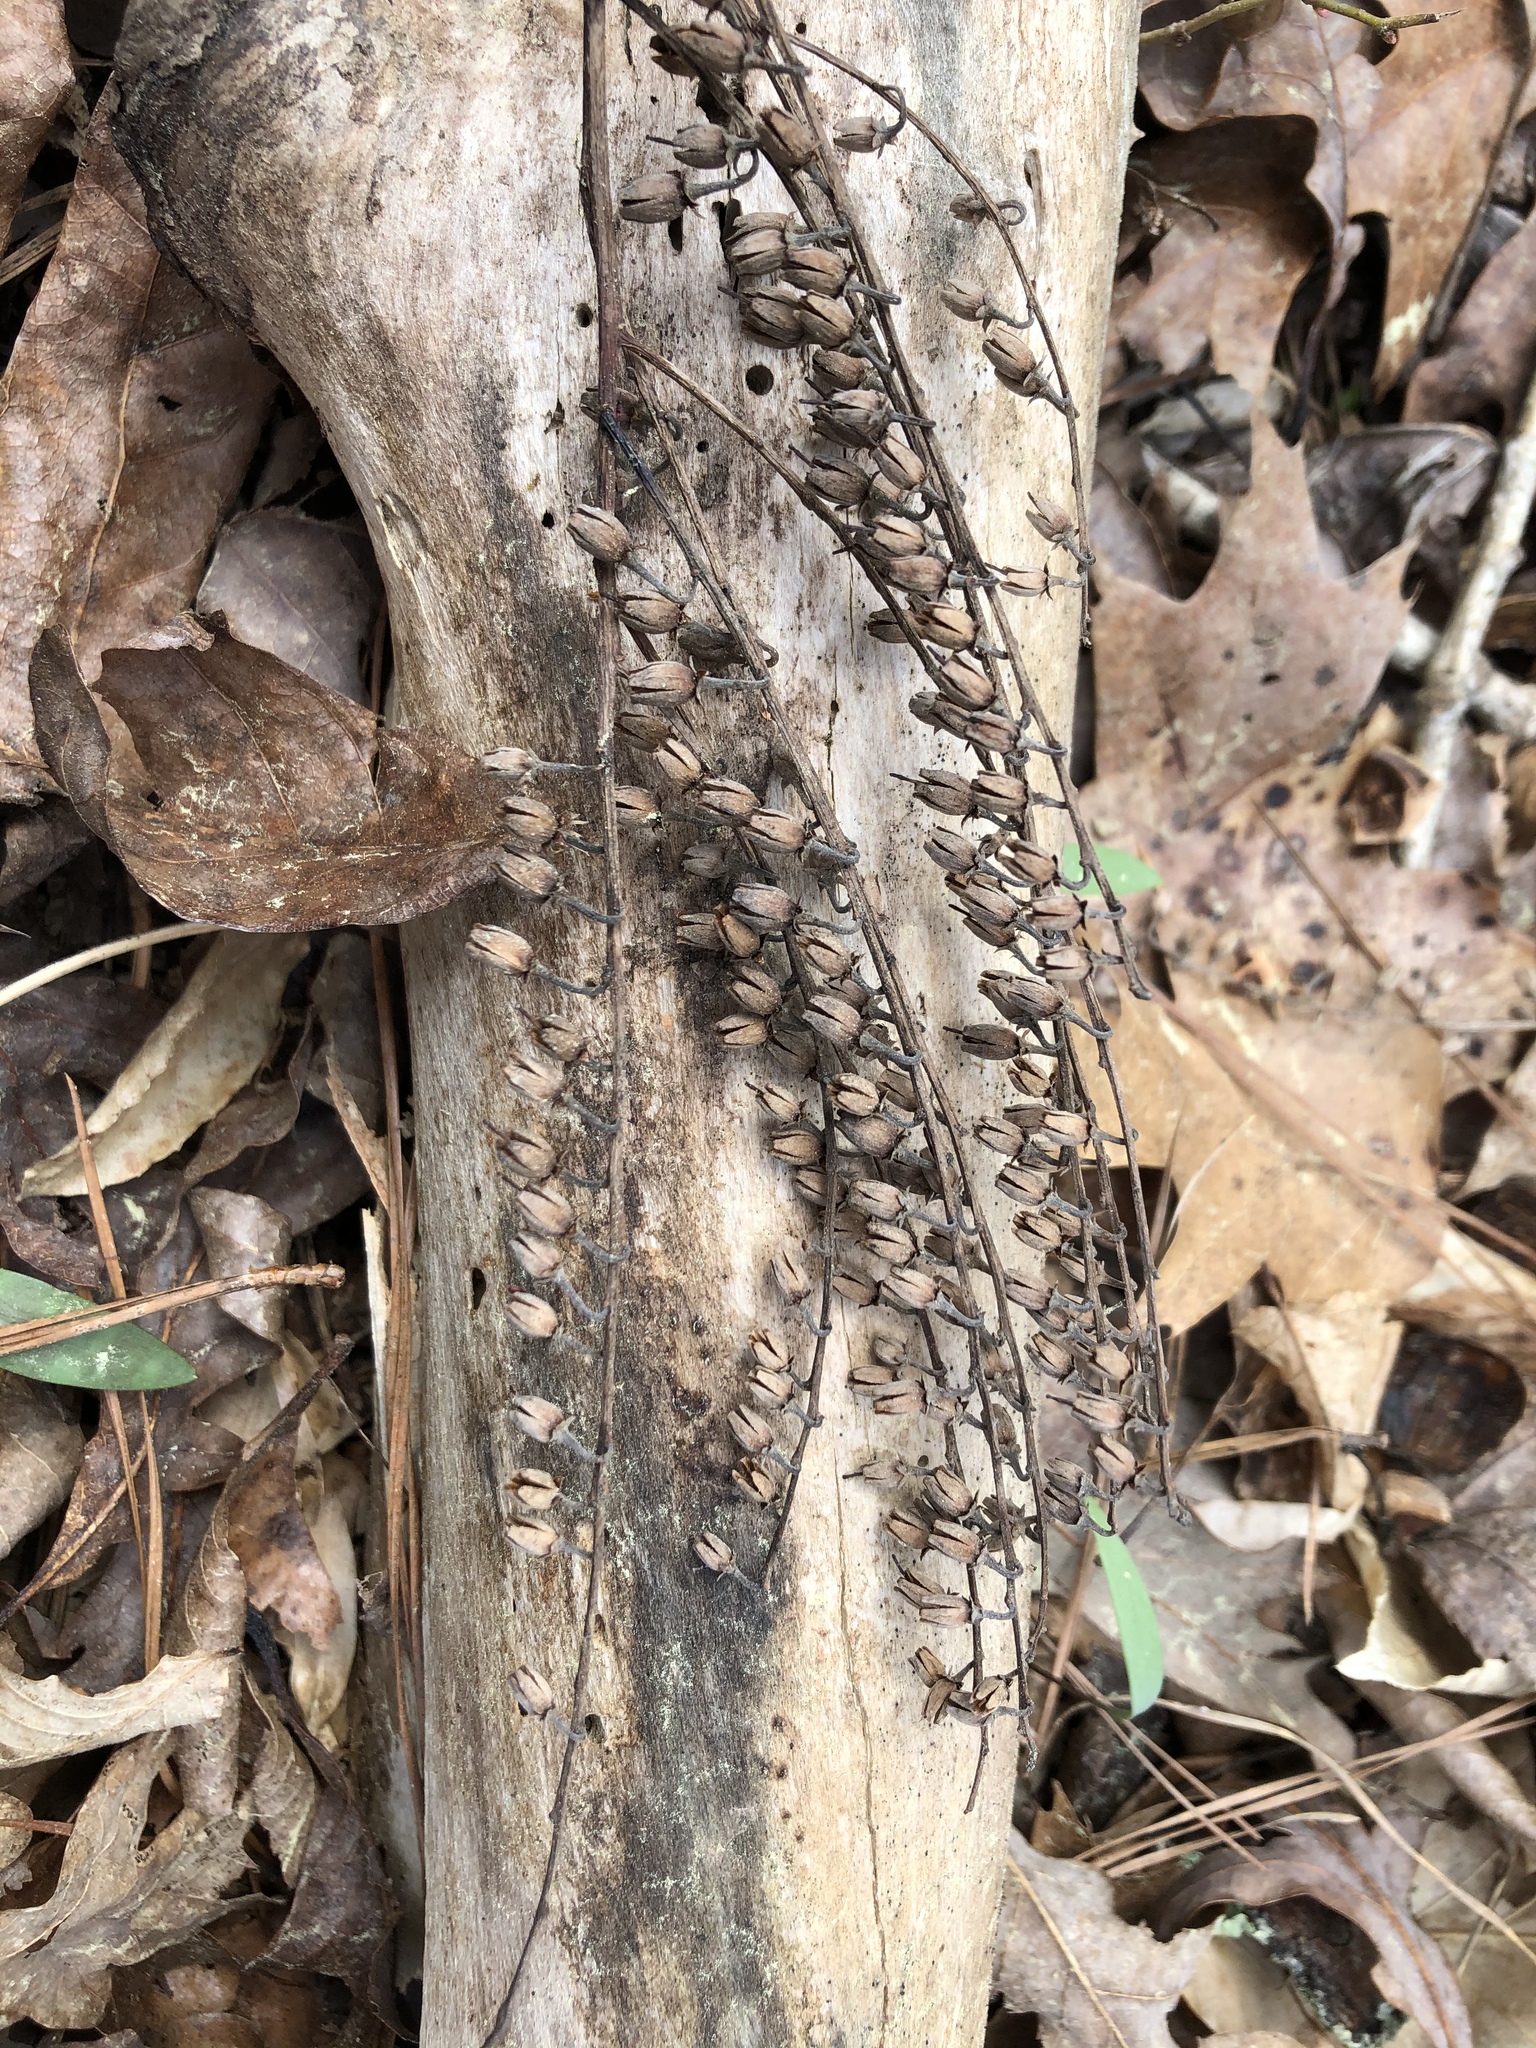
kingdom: Plantae
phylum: Tracheophyta
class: Magnoliopsida
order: Ericales
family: Ericaceae
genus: Oxydendrum
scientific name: Oxydendrum arboreum
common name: Sourwood
